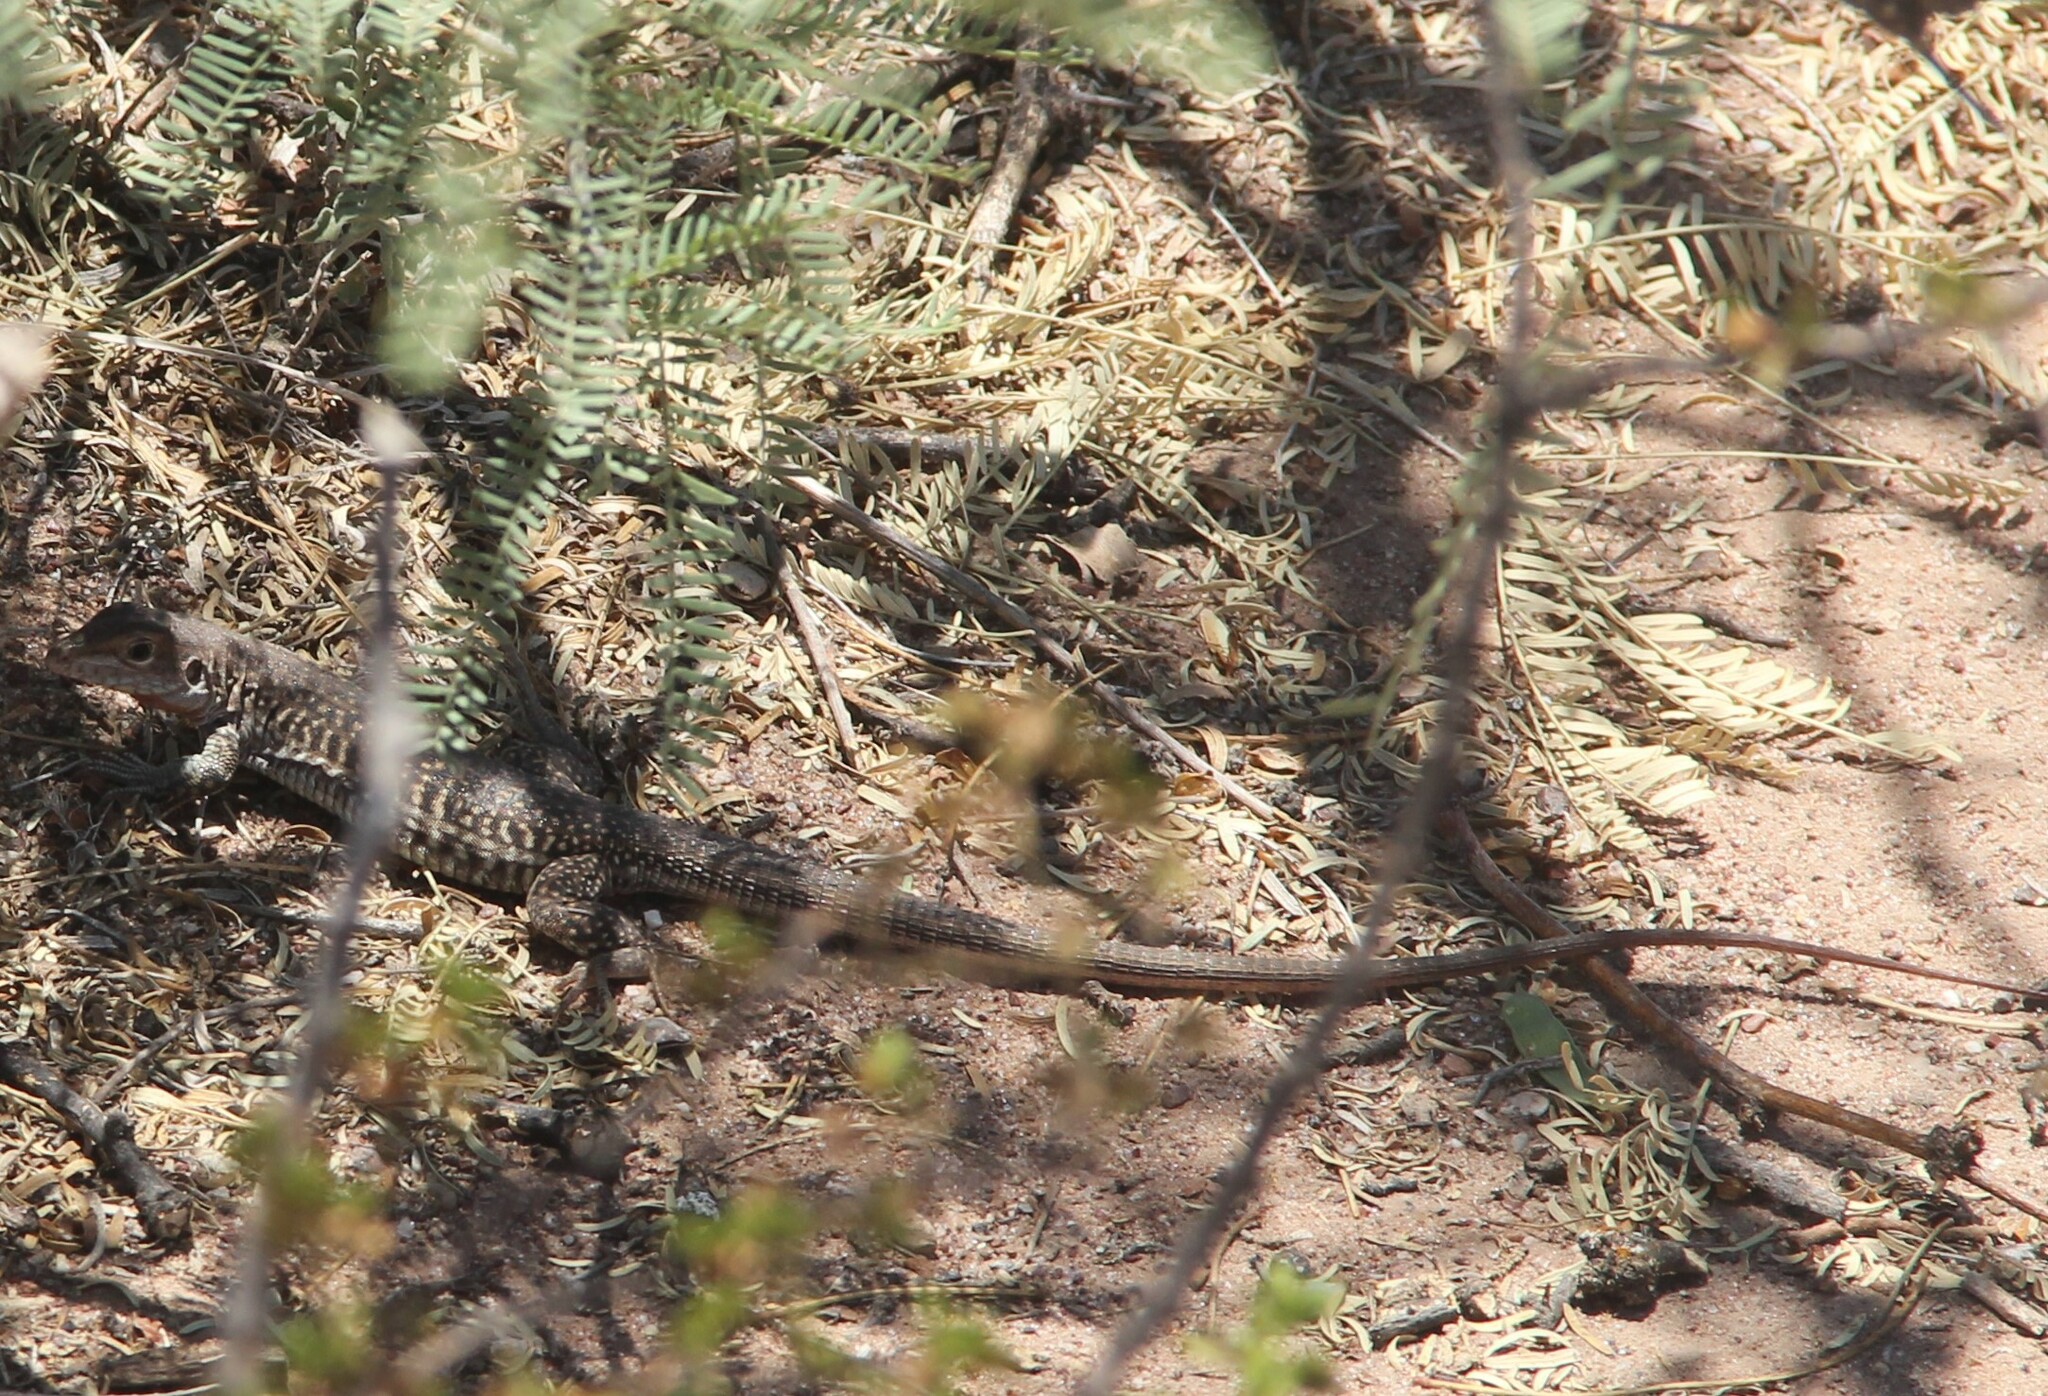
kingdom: Animalia
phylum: Chordata
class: Squamata
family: Teiidae
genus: Aspidoscelis
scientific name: Aspidoscelis gularis
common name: Eastern spotted whiptail
